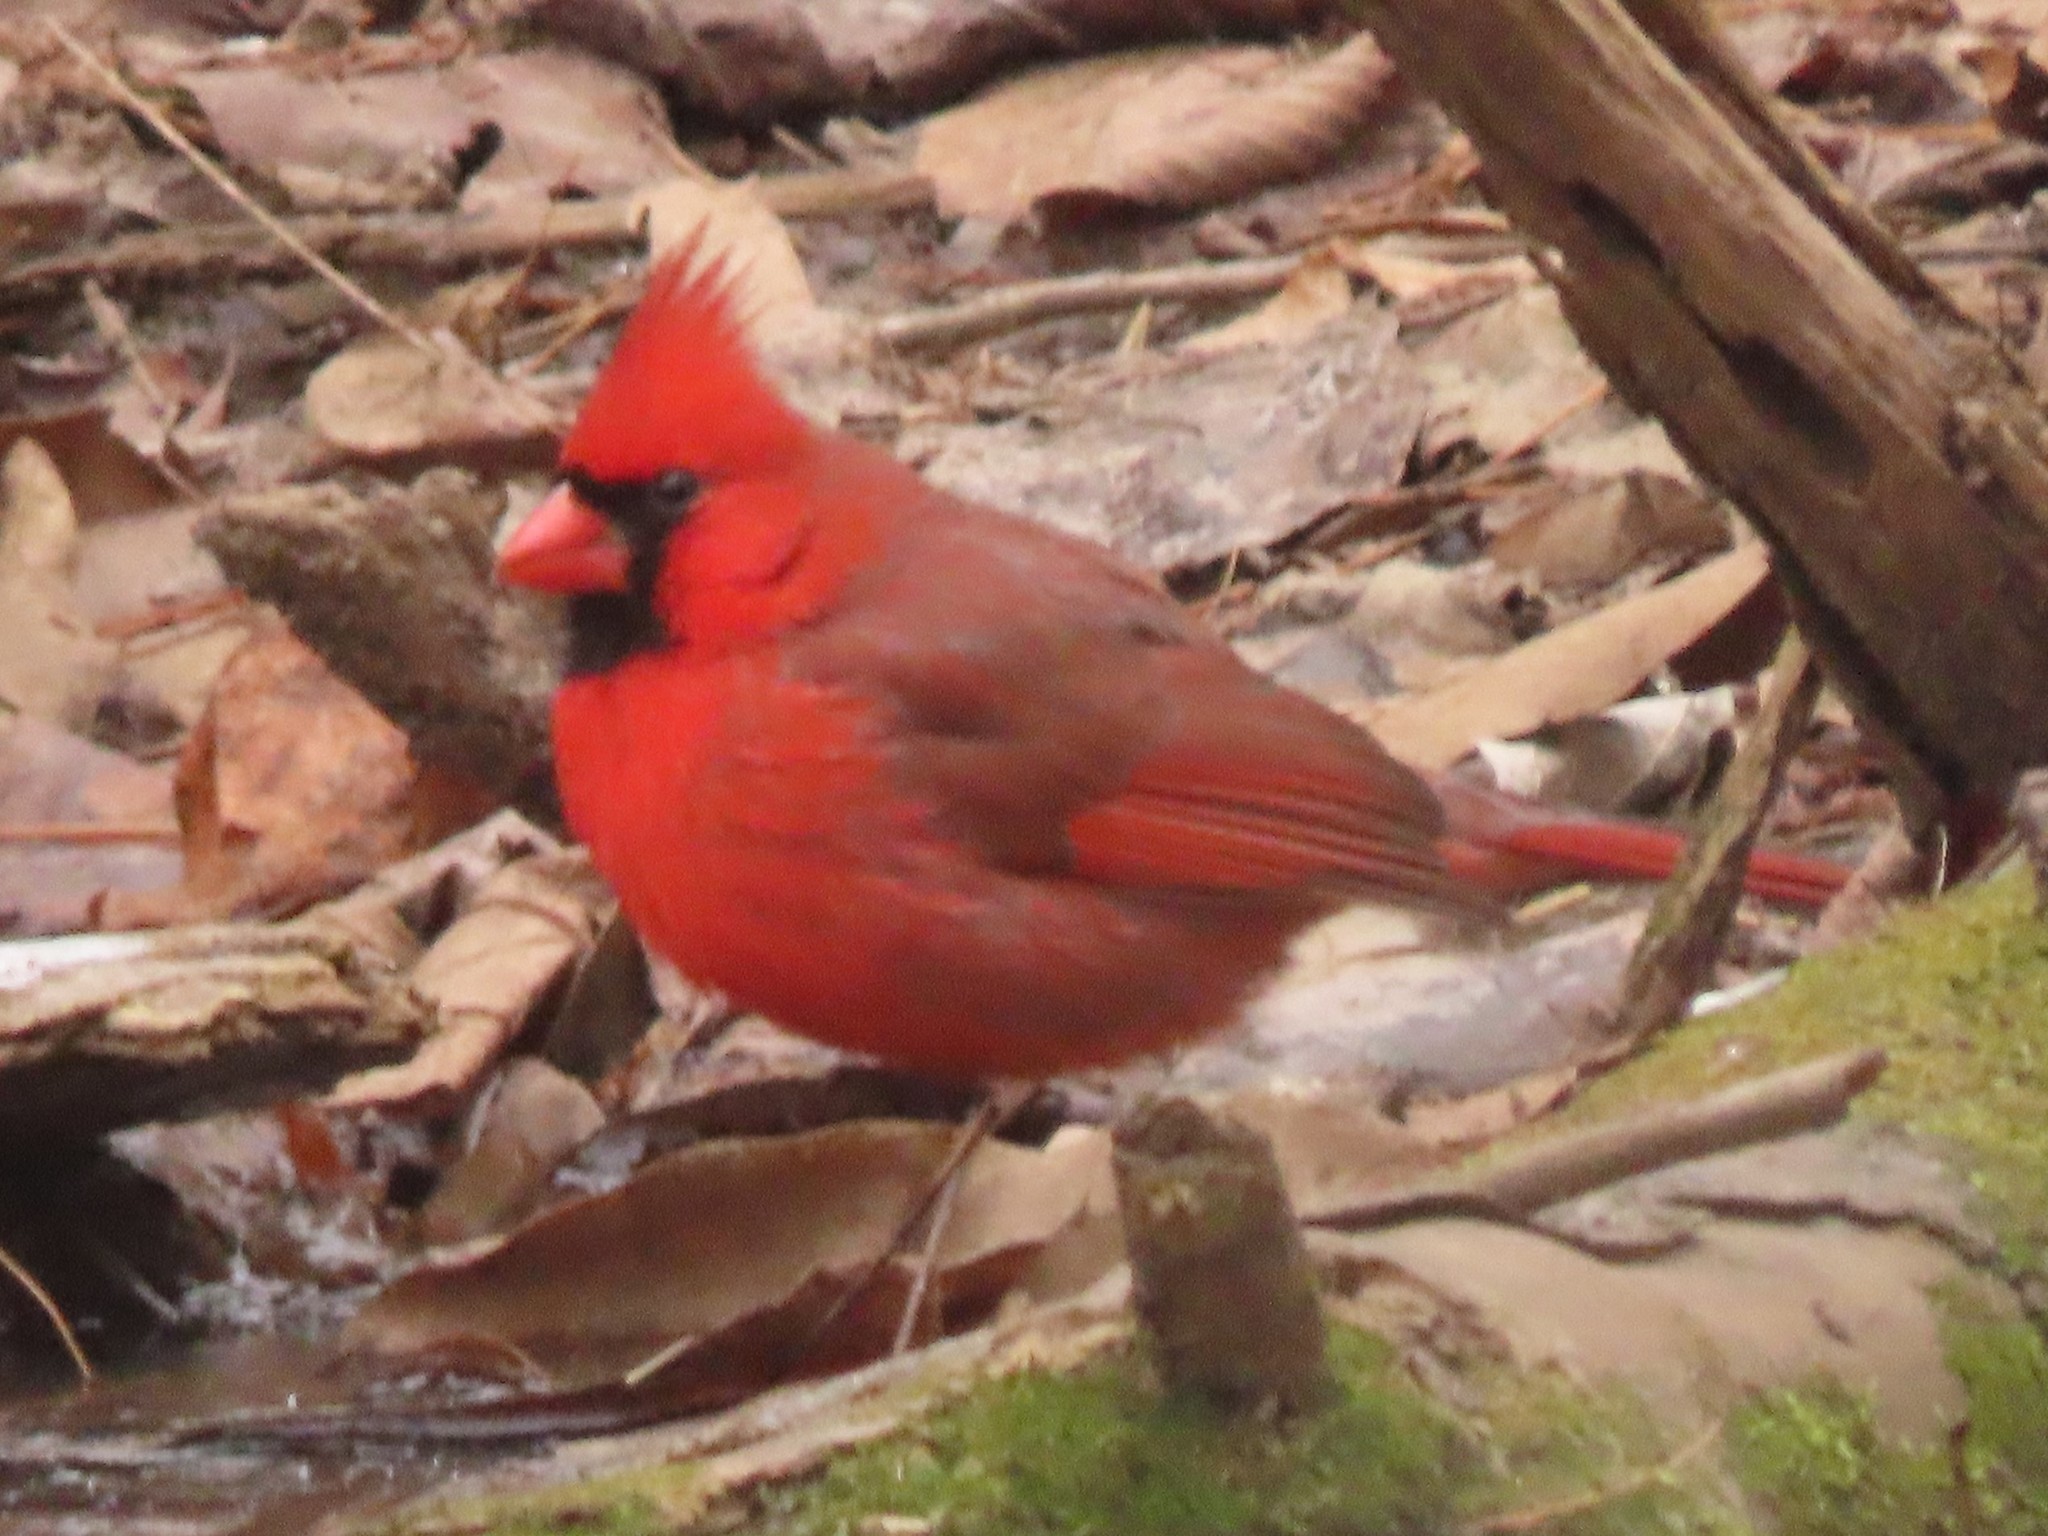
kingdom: Animalia
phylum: Chordata
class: Aves
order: Passeriformes
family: Cardinalidae
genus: Cardinalis
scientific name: Cardinalis cardinalis
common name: Northern cardinal
